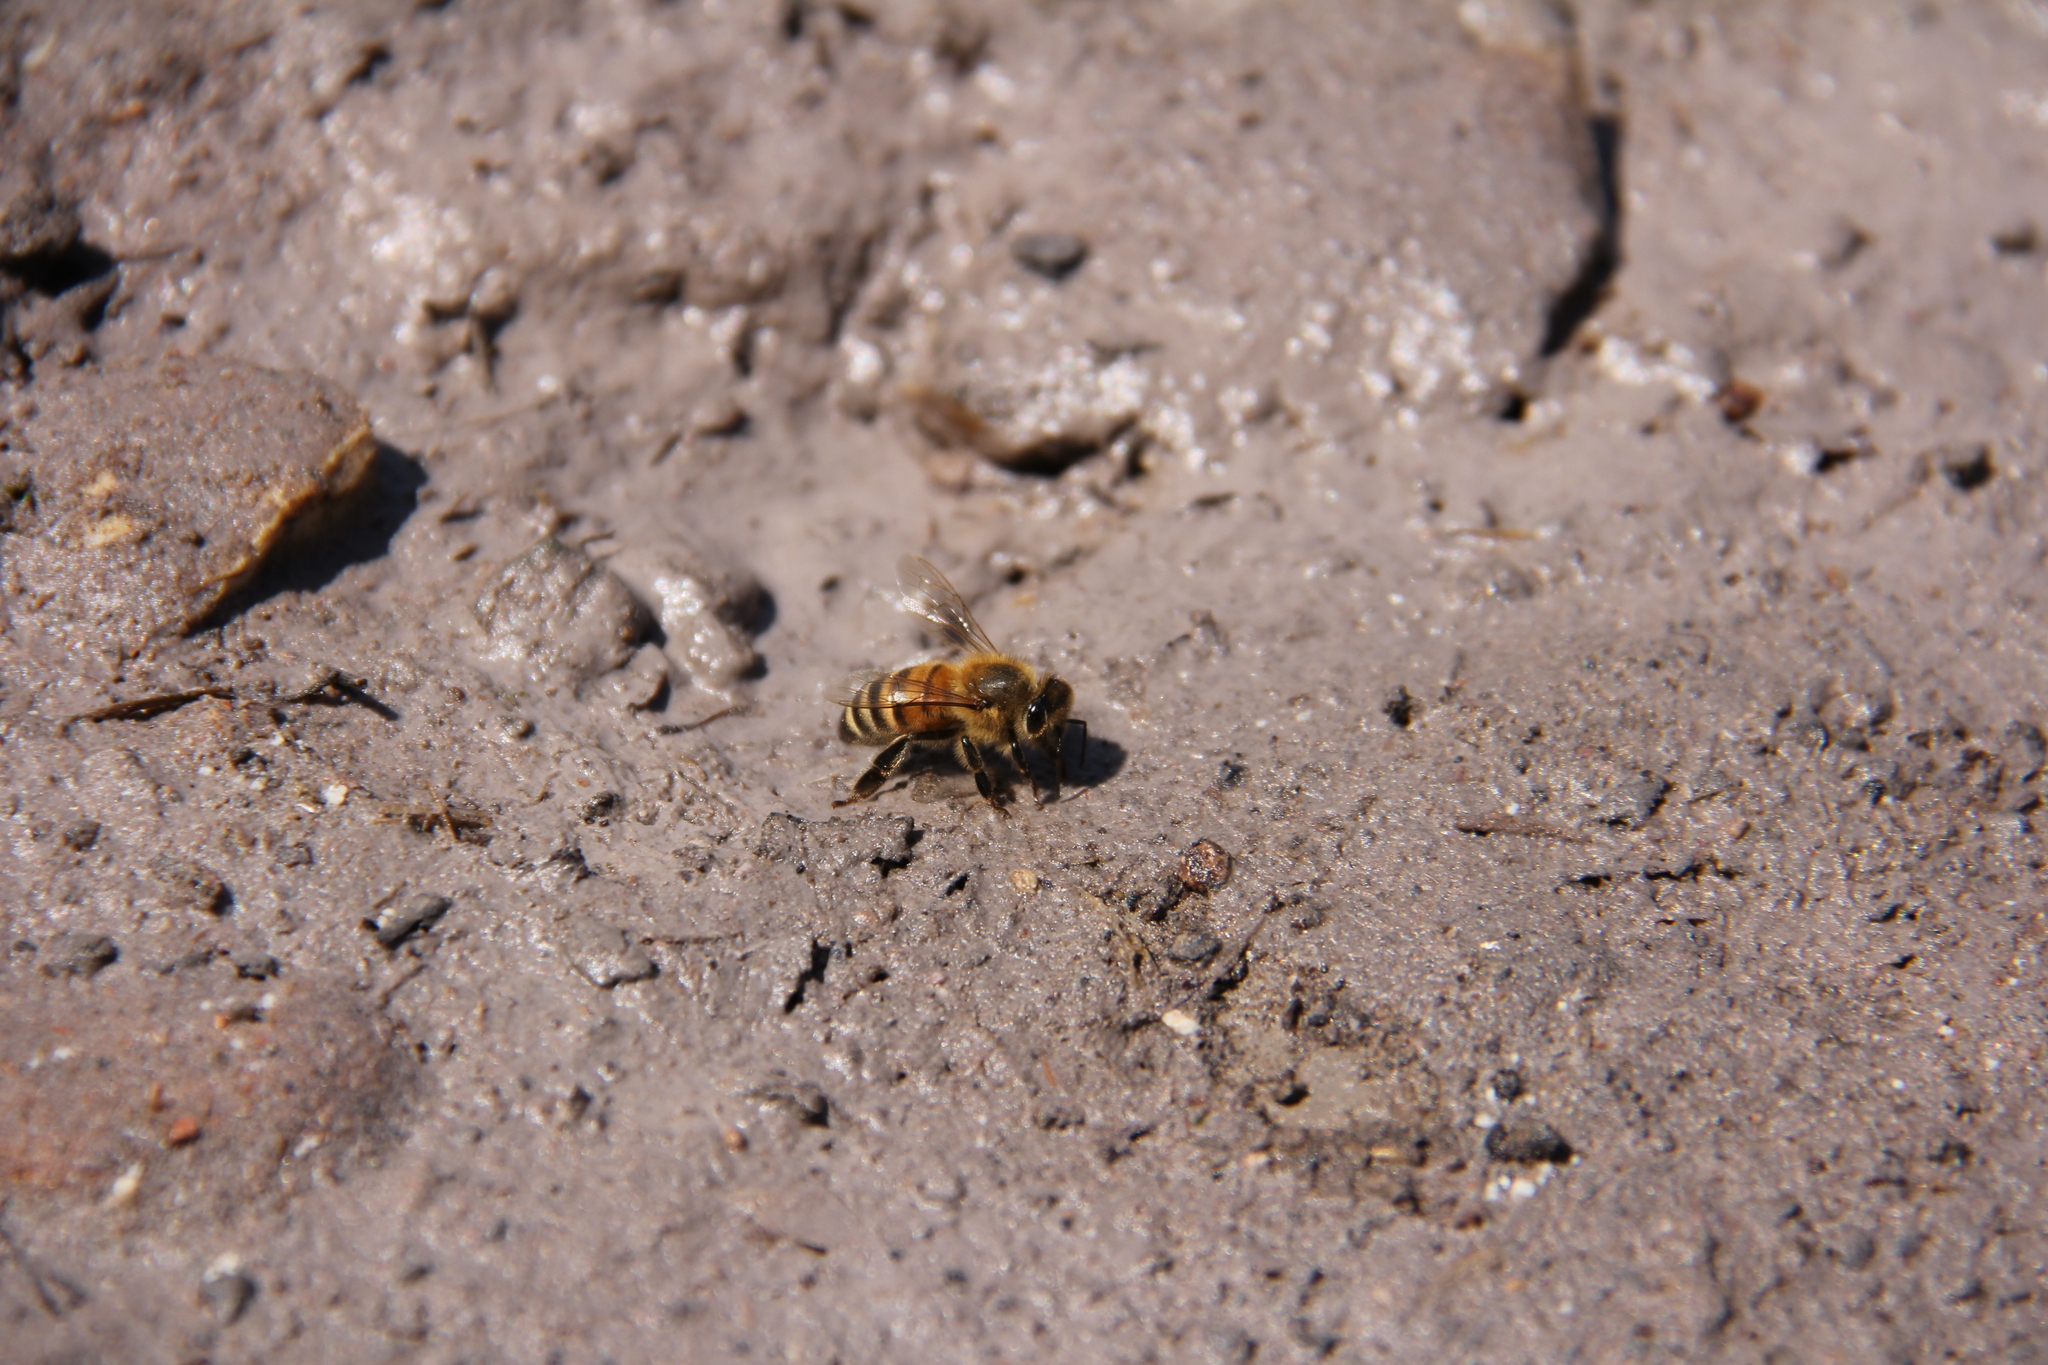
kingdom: Animalia
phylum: Arthropoda
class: Insecta
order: Hymenoptera
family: Apidae
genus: Apis
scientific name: Apis mellifera
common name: Honey bee
